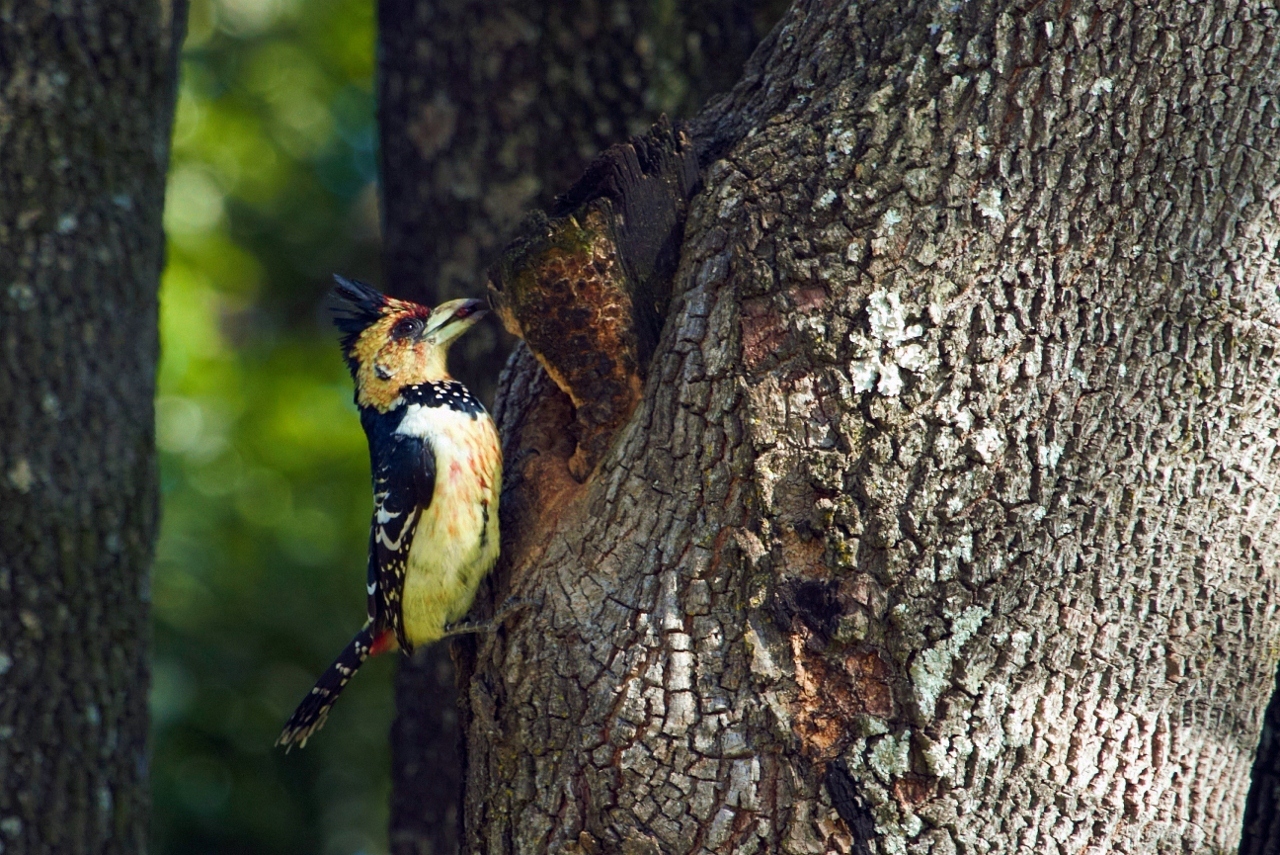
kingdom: Animalia
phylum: Chordata
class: Aves
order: Piciformes
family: Lybiidae
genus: Trachyphonus
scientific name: Trachyphonus vaillantii
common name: Crested barbet
